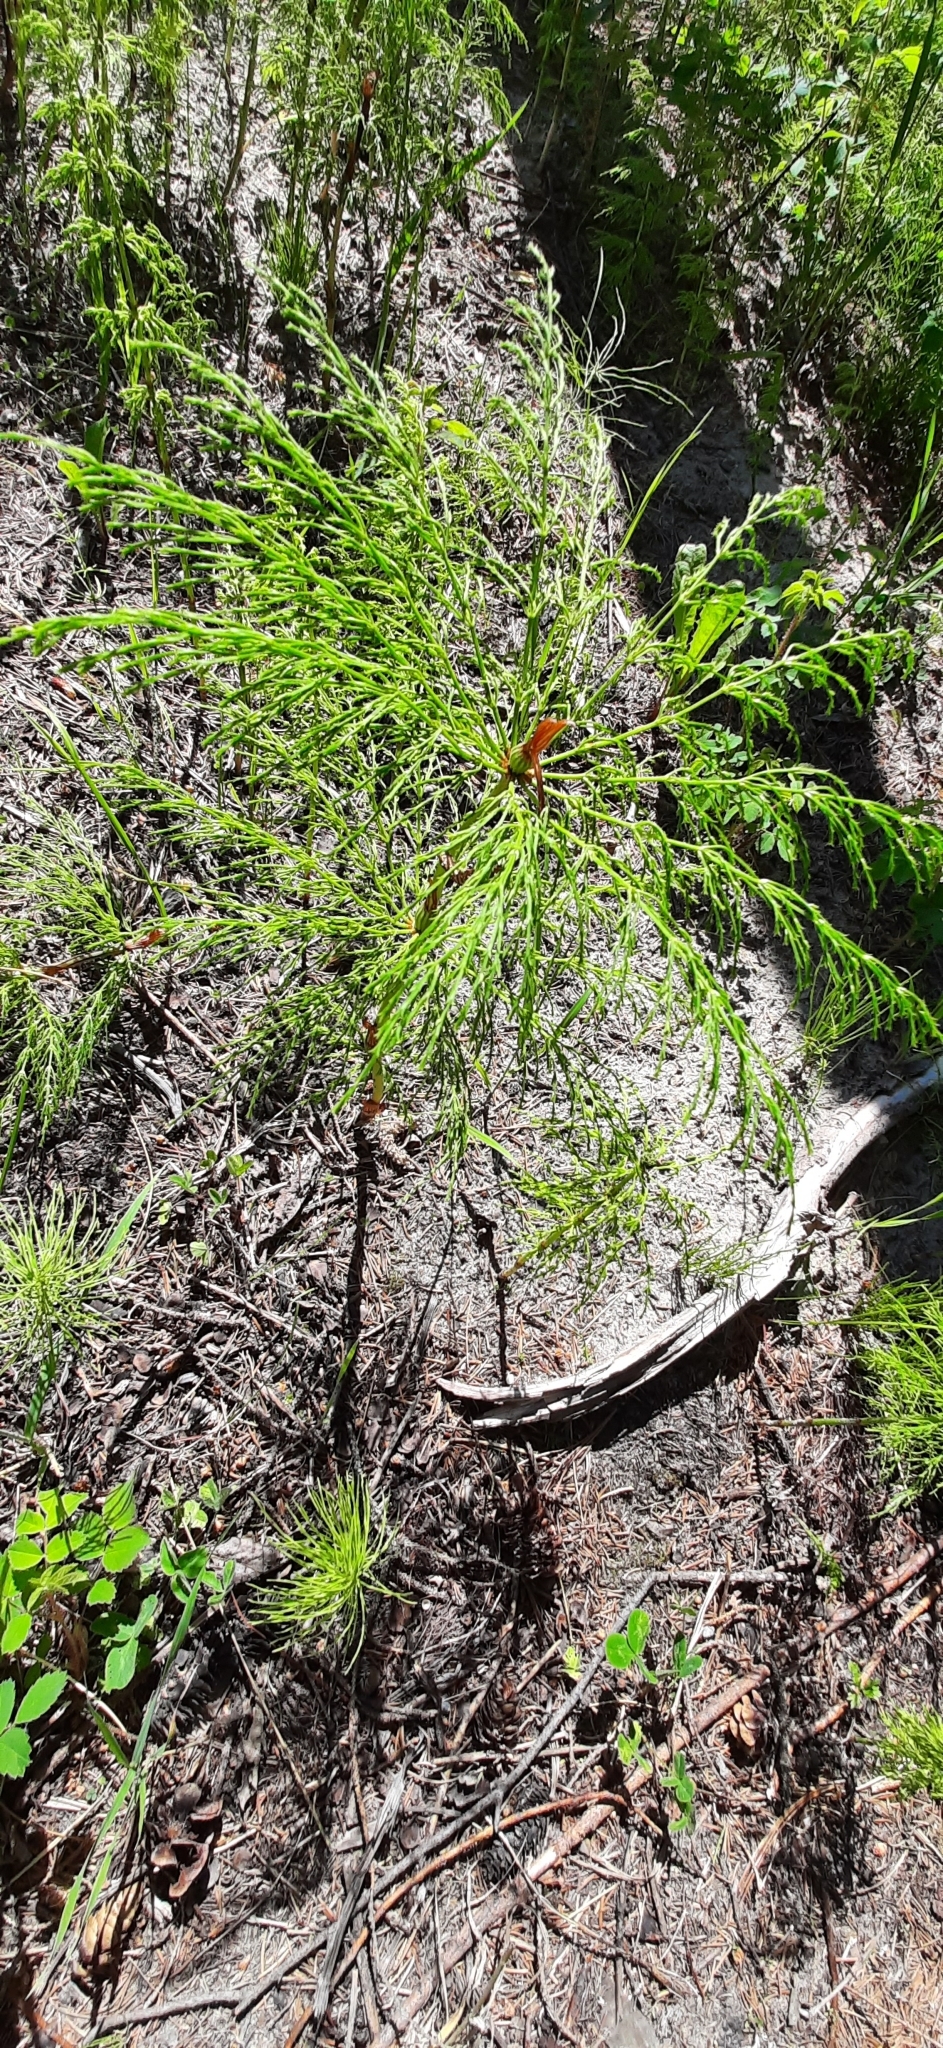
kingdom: Plantae
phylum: Tracheophyta
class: Polypodiopsida
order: Equisetales
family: Equisetaceae
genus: Equisetum
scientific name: Equisetum sylvaticum
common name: Wood horsetail
